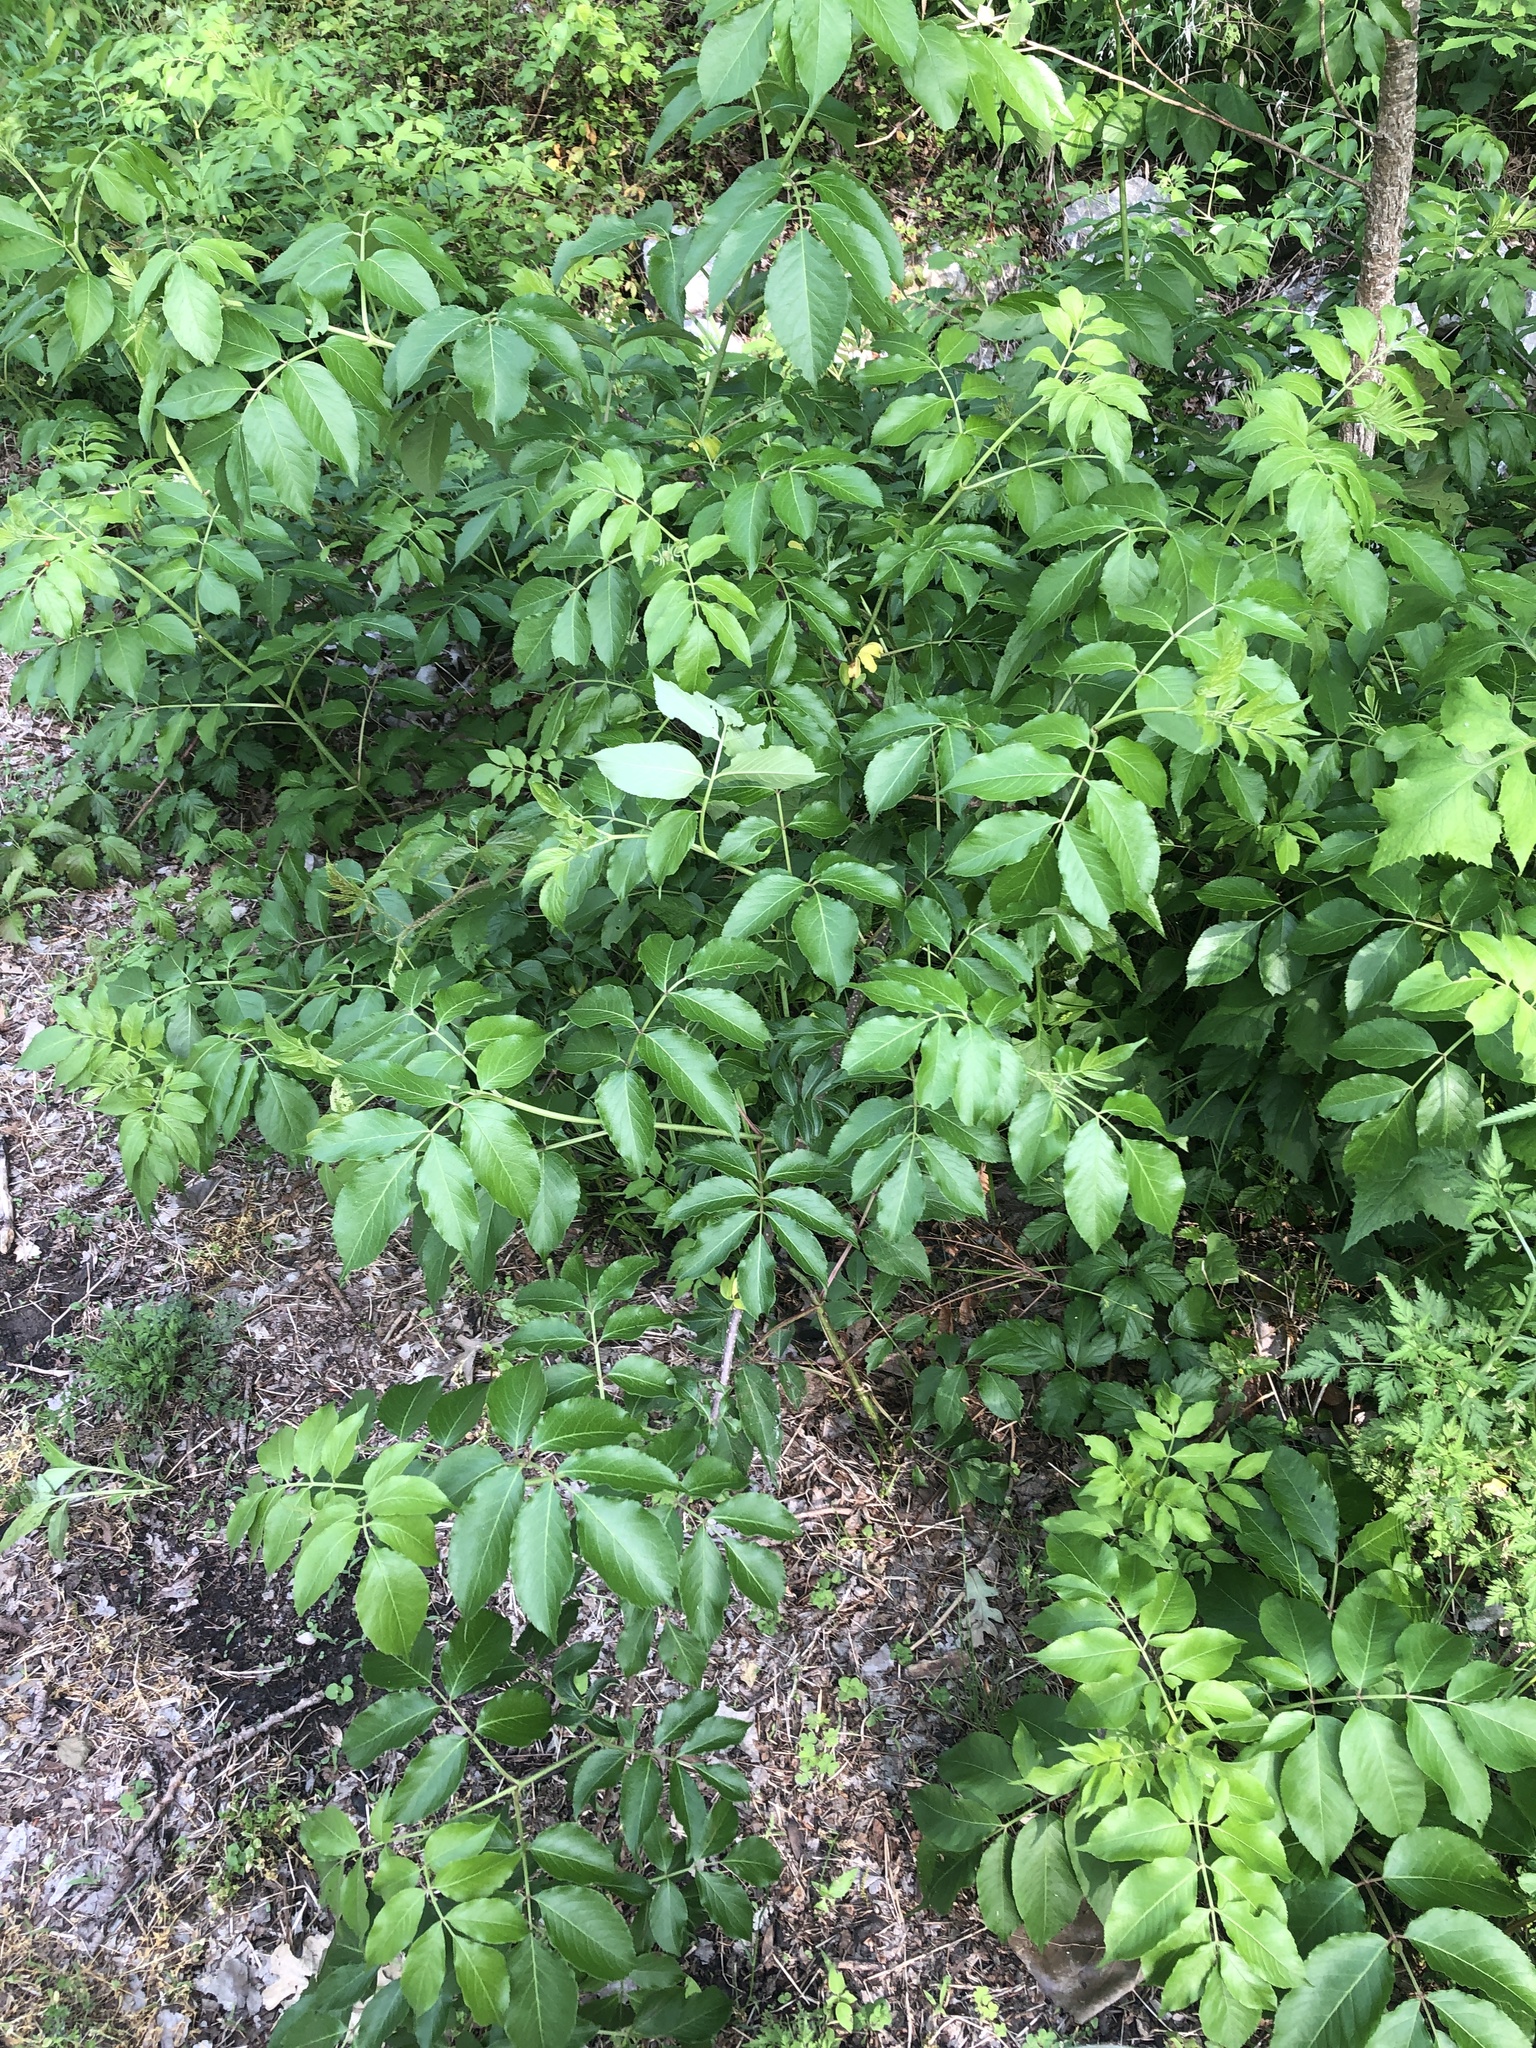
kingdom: Plantae
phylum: Tracheophyta
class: Magnoliopsida
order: Dipsacales
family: Viburnaceae
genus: Sambucus
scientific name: Sambucus canadensis
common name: American elder
